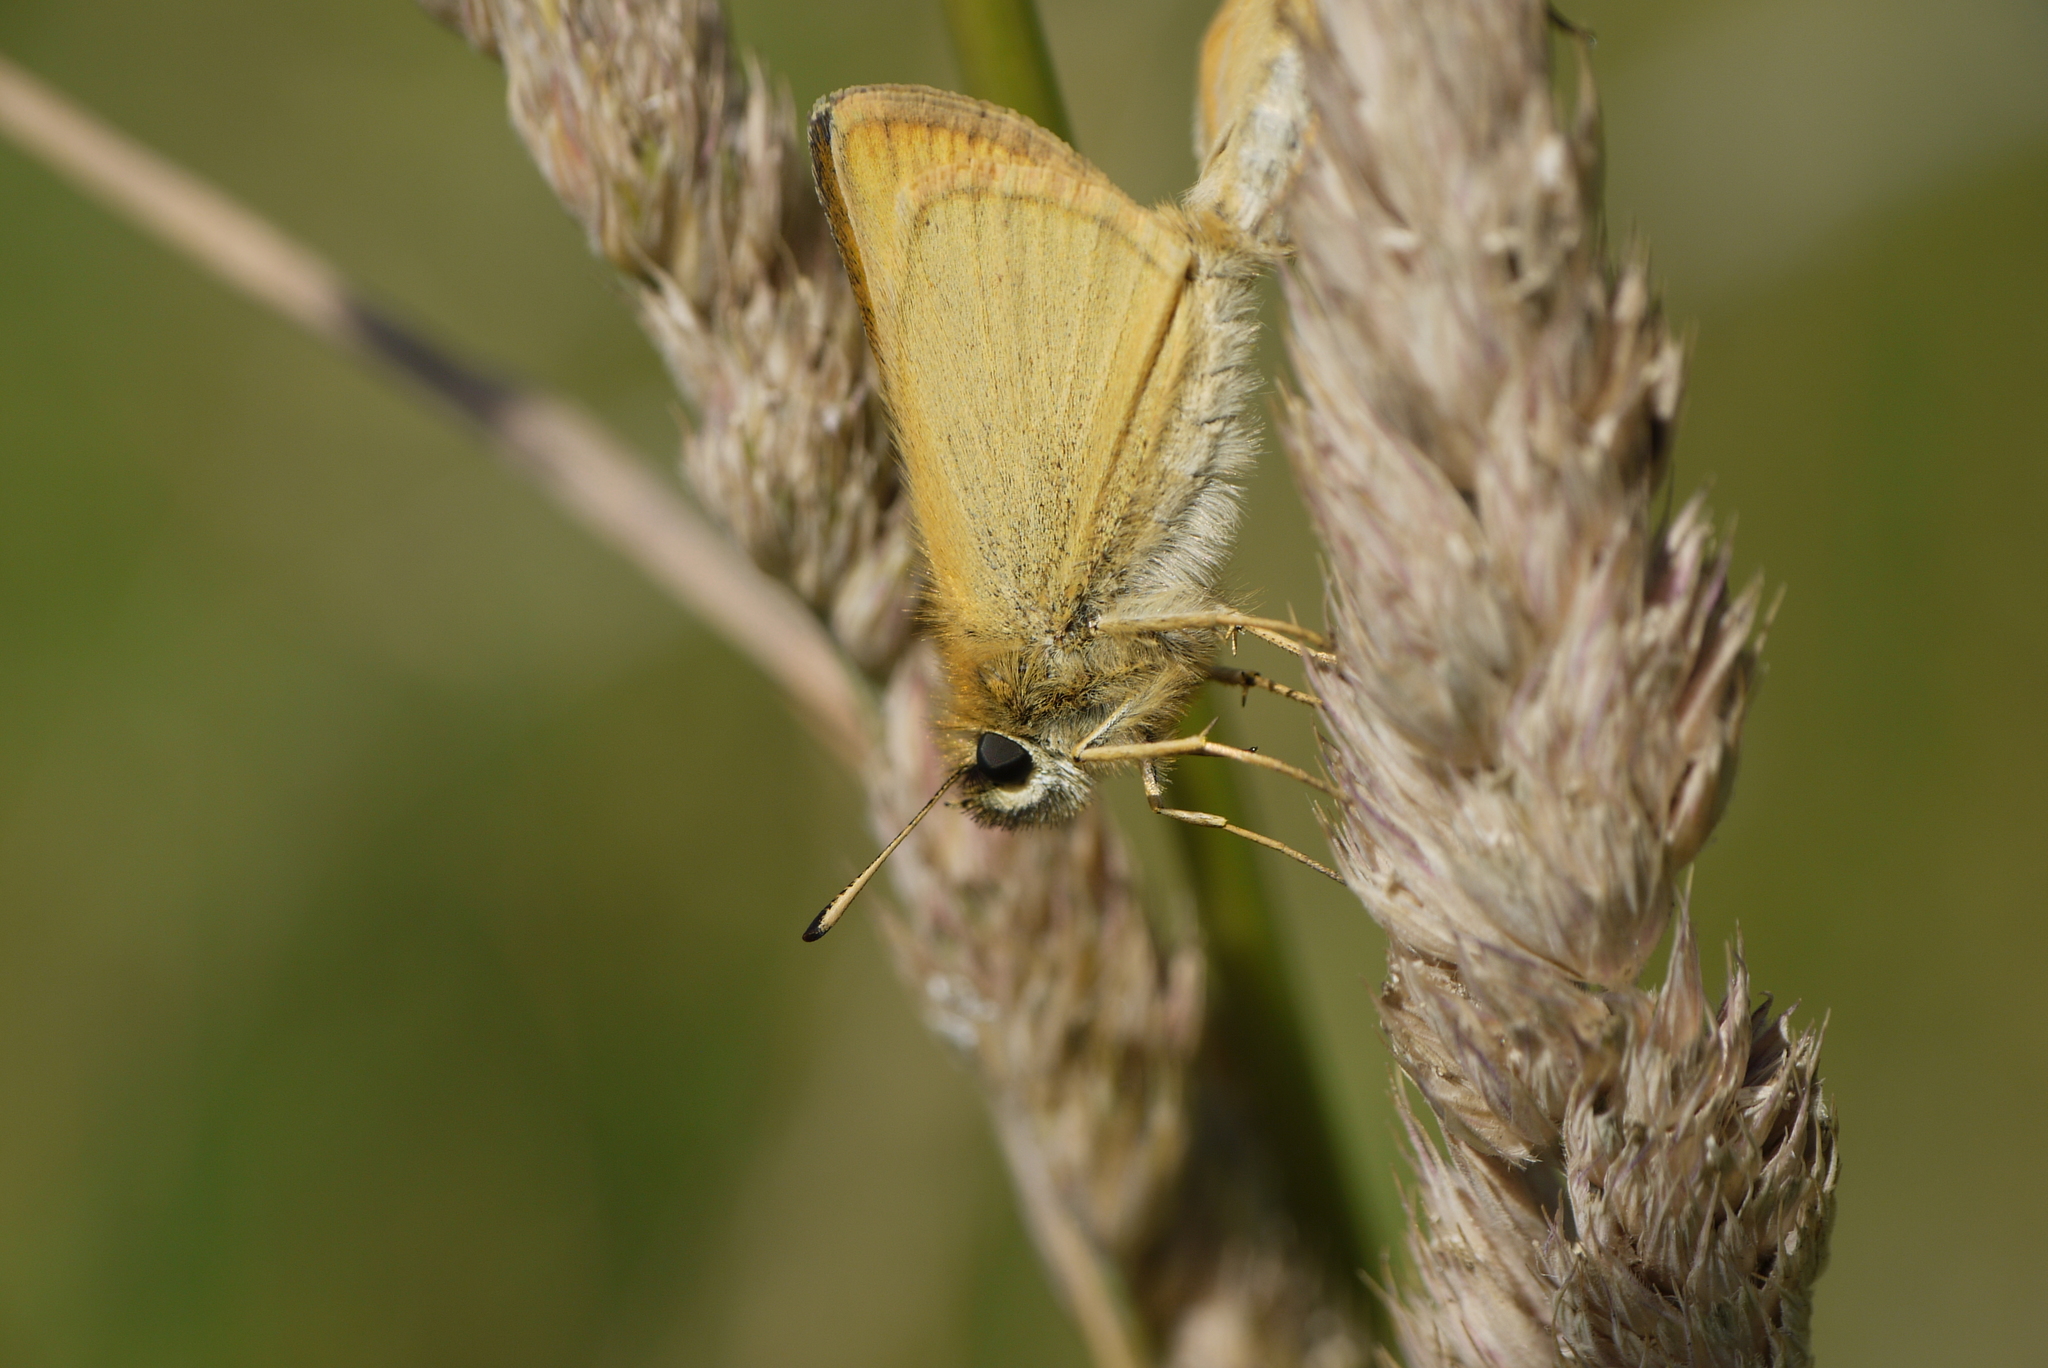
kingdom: Animalia
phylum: Arthropoda
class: Insecta
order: Lepidoptera
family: Hesperiidae
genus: Thymelicus
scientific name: Thymelicus lineola
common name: Essex skipper
